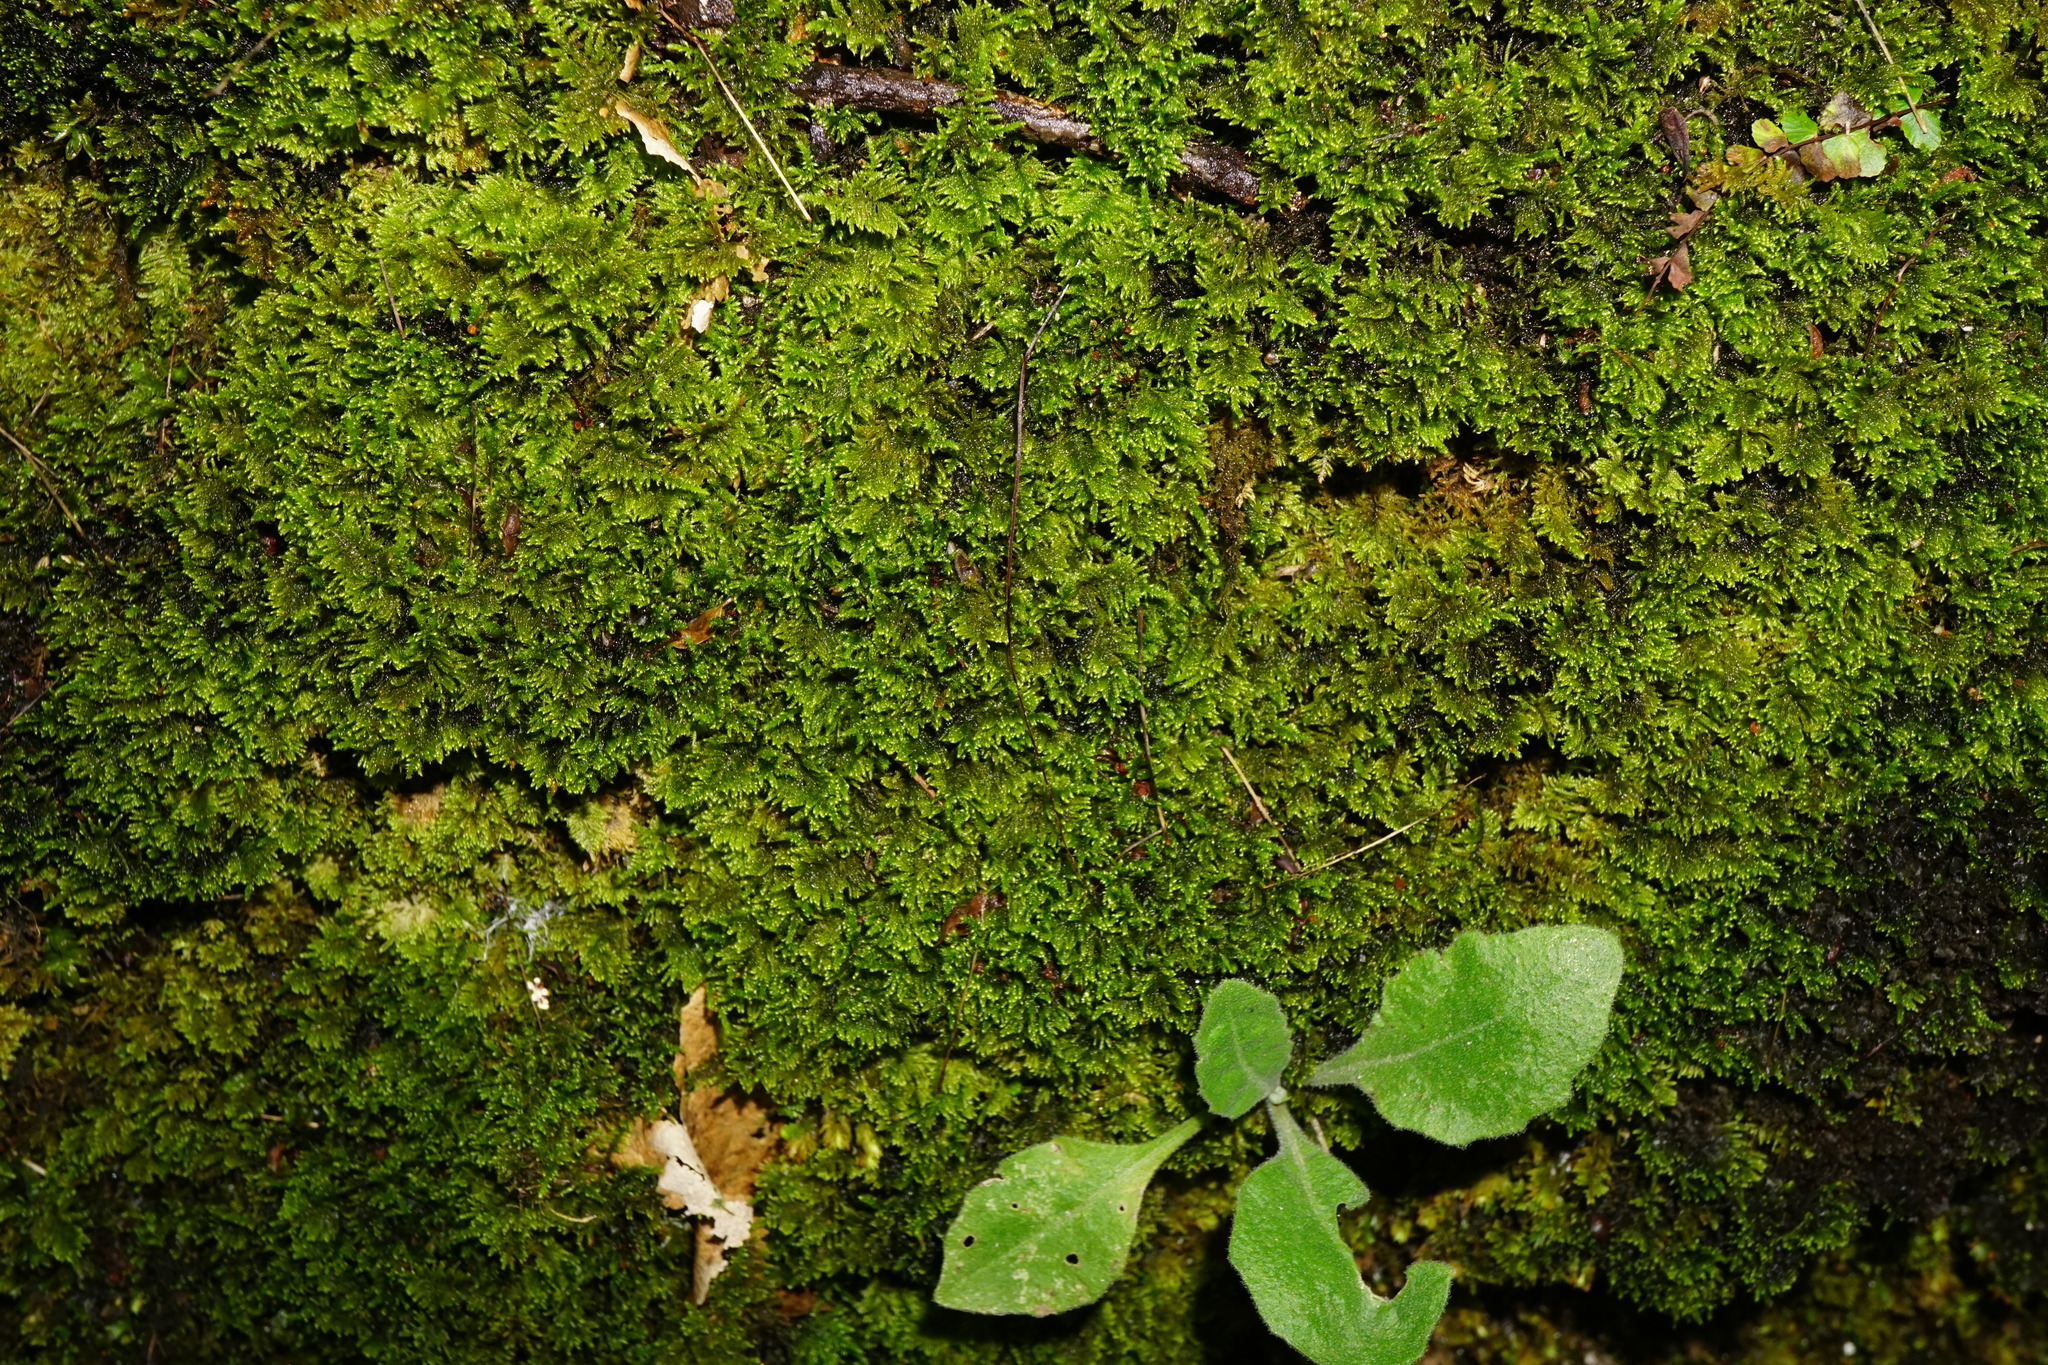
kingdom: Plantae
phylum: Bryophyta
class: Bryopsida
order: Hypnales
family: Myuriaceae
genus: Ctenidium
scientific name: Ctenidium molluscum
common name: Chalk comb-moss
